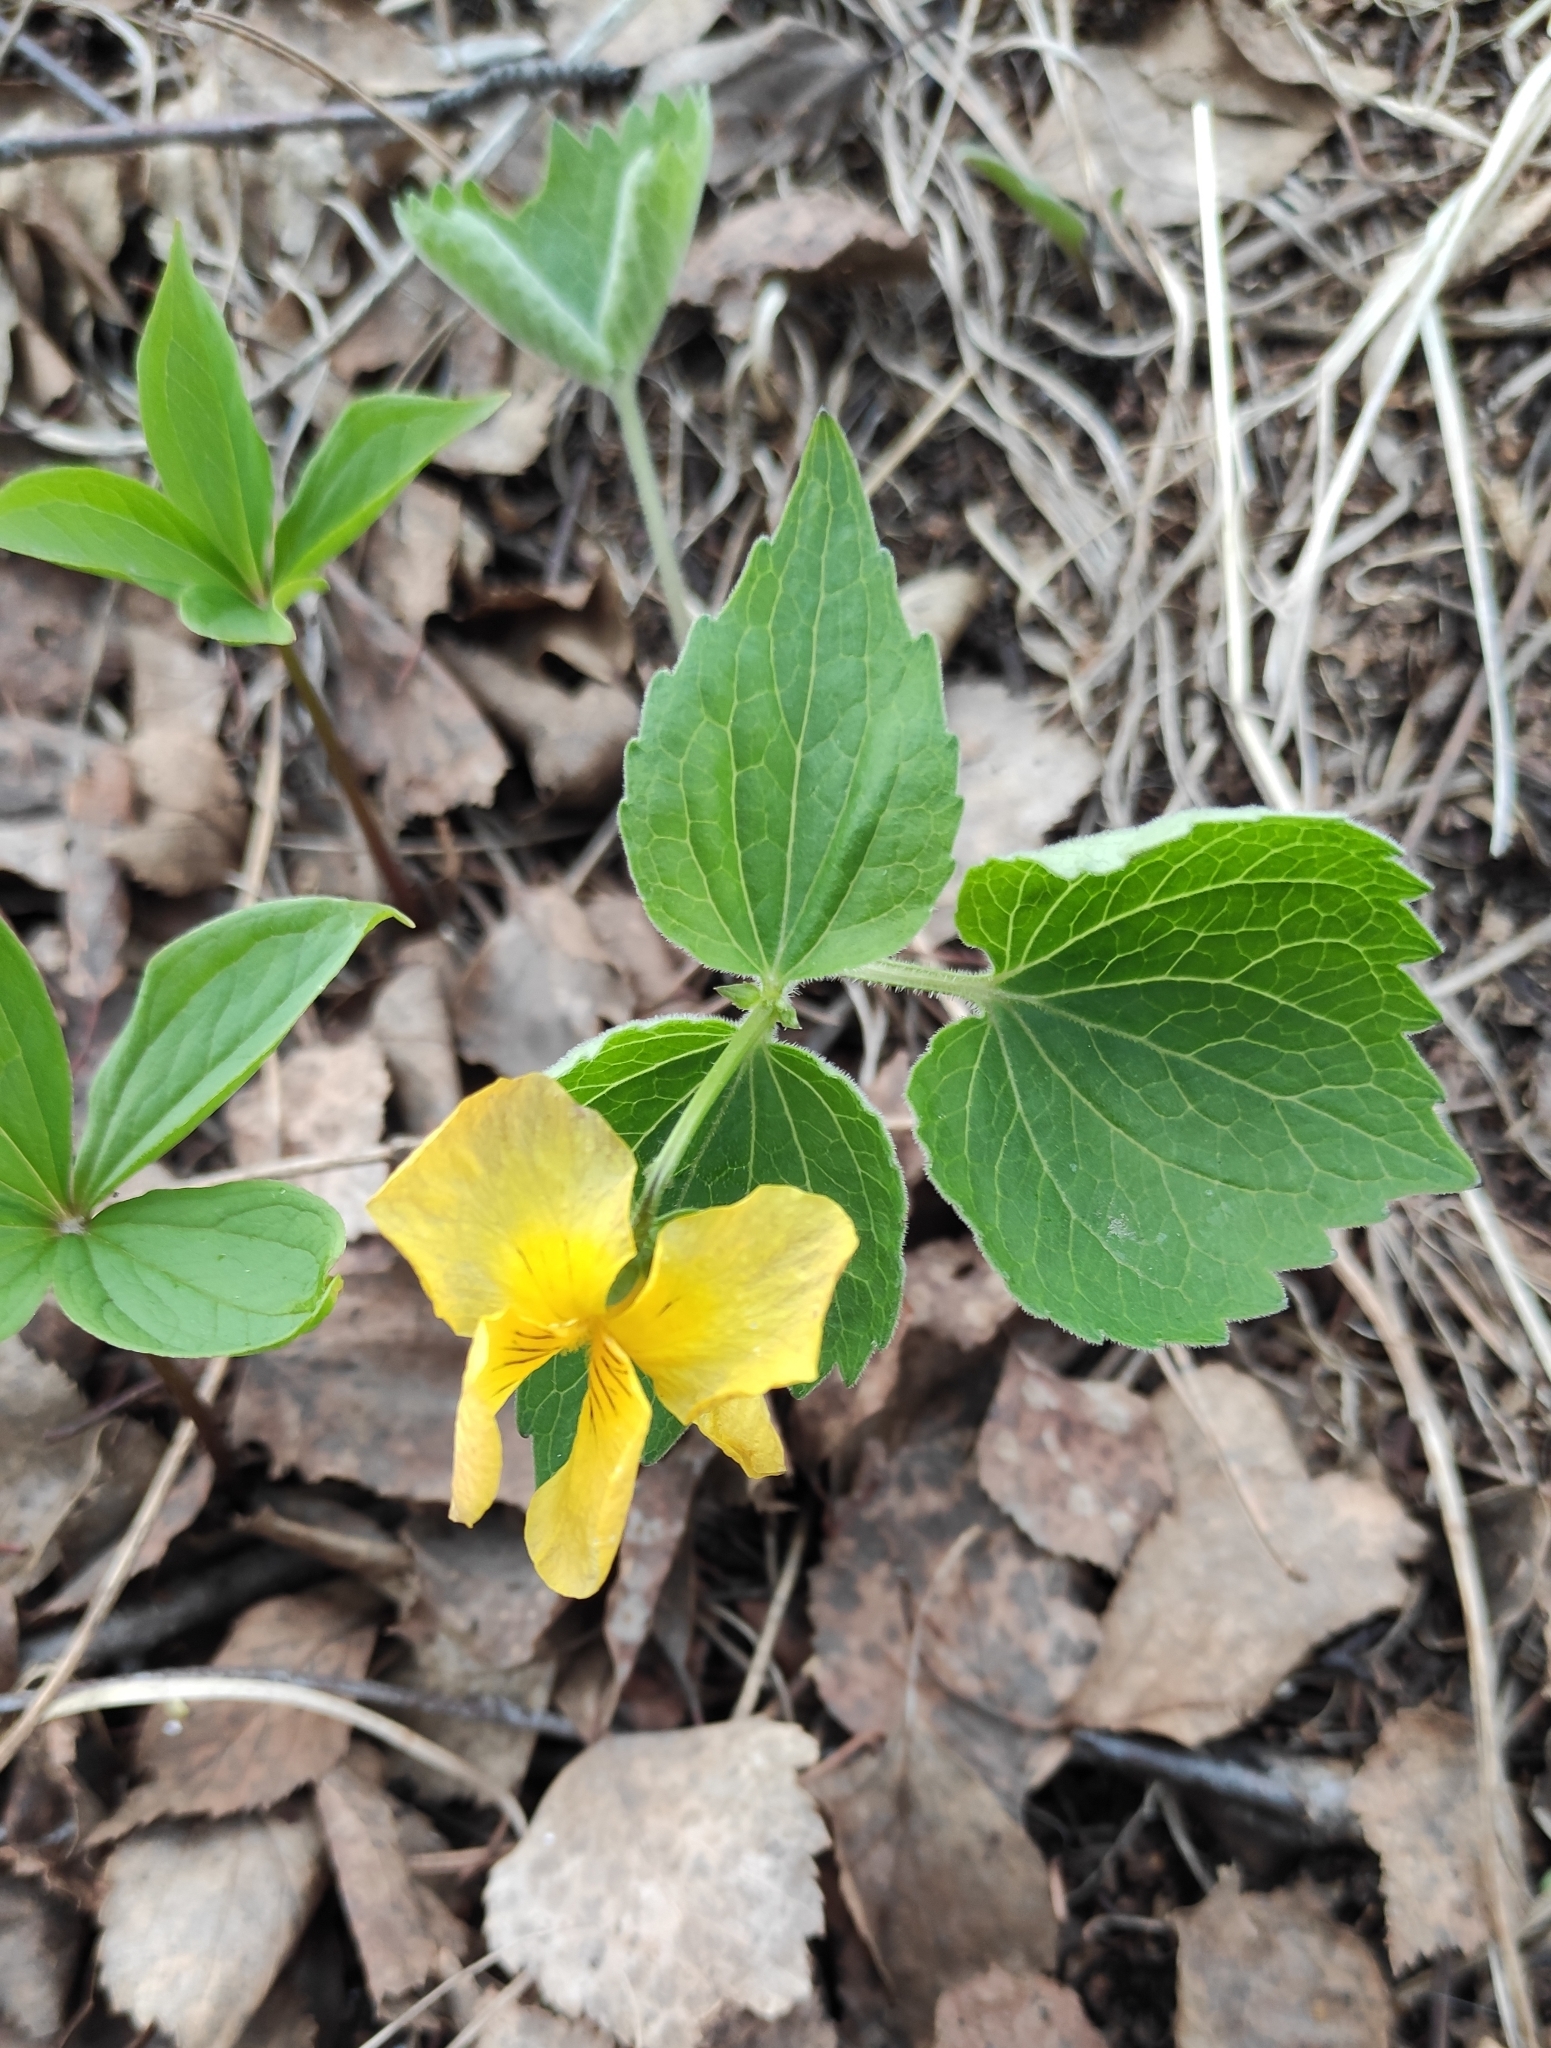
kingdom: Plantae
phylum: Tracheophyta
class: Magnoliopsida
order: Malpighiales
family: Violaceae
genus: Viola
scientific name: Viola uniflora
